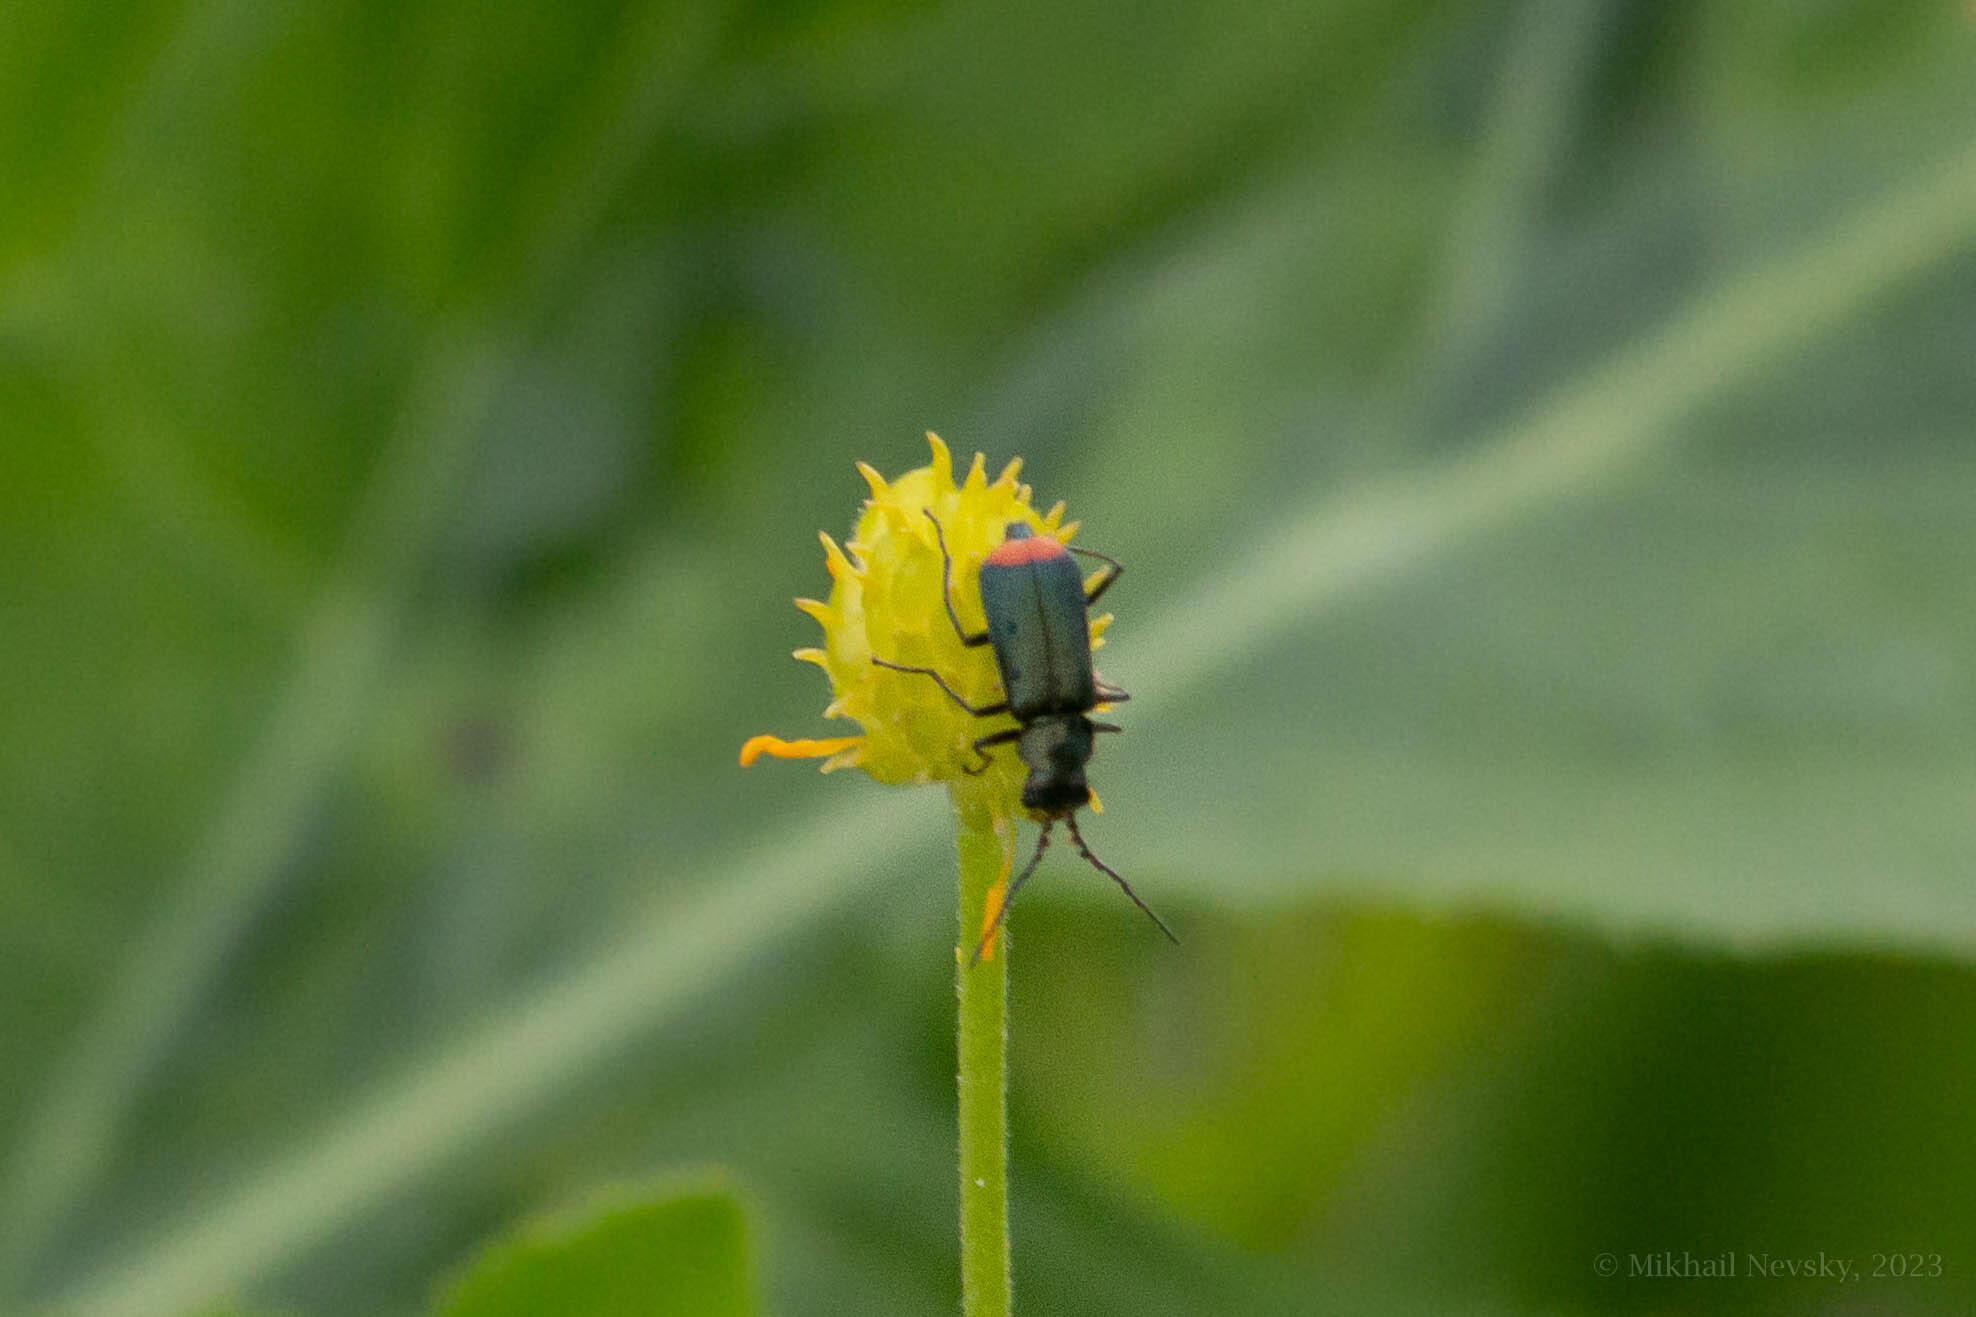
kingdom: Animalia
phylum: Arthropoda
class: Insecta
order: Coleoptera
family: Melyridae
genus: Malachius
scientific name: Malachius bipustulatus
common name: Malachite beetle
